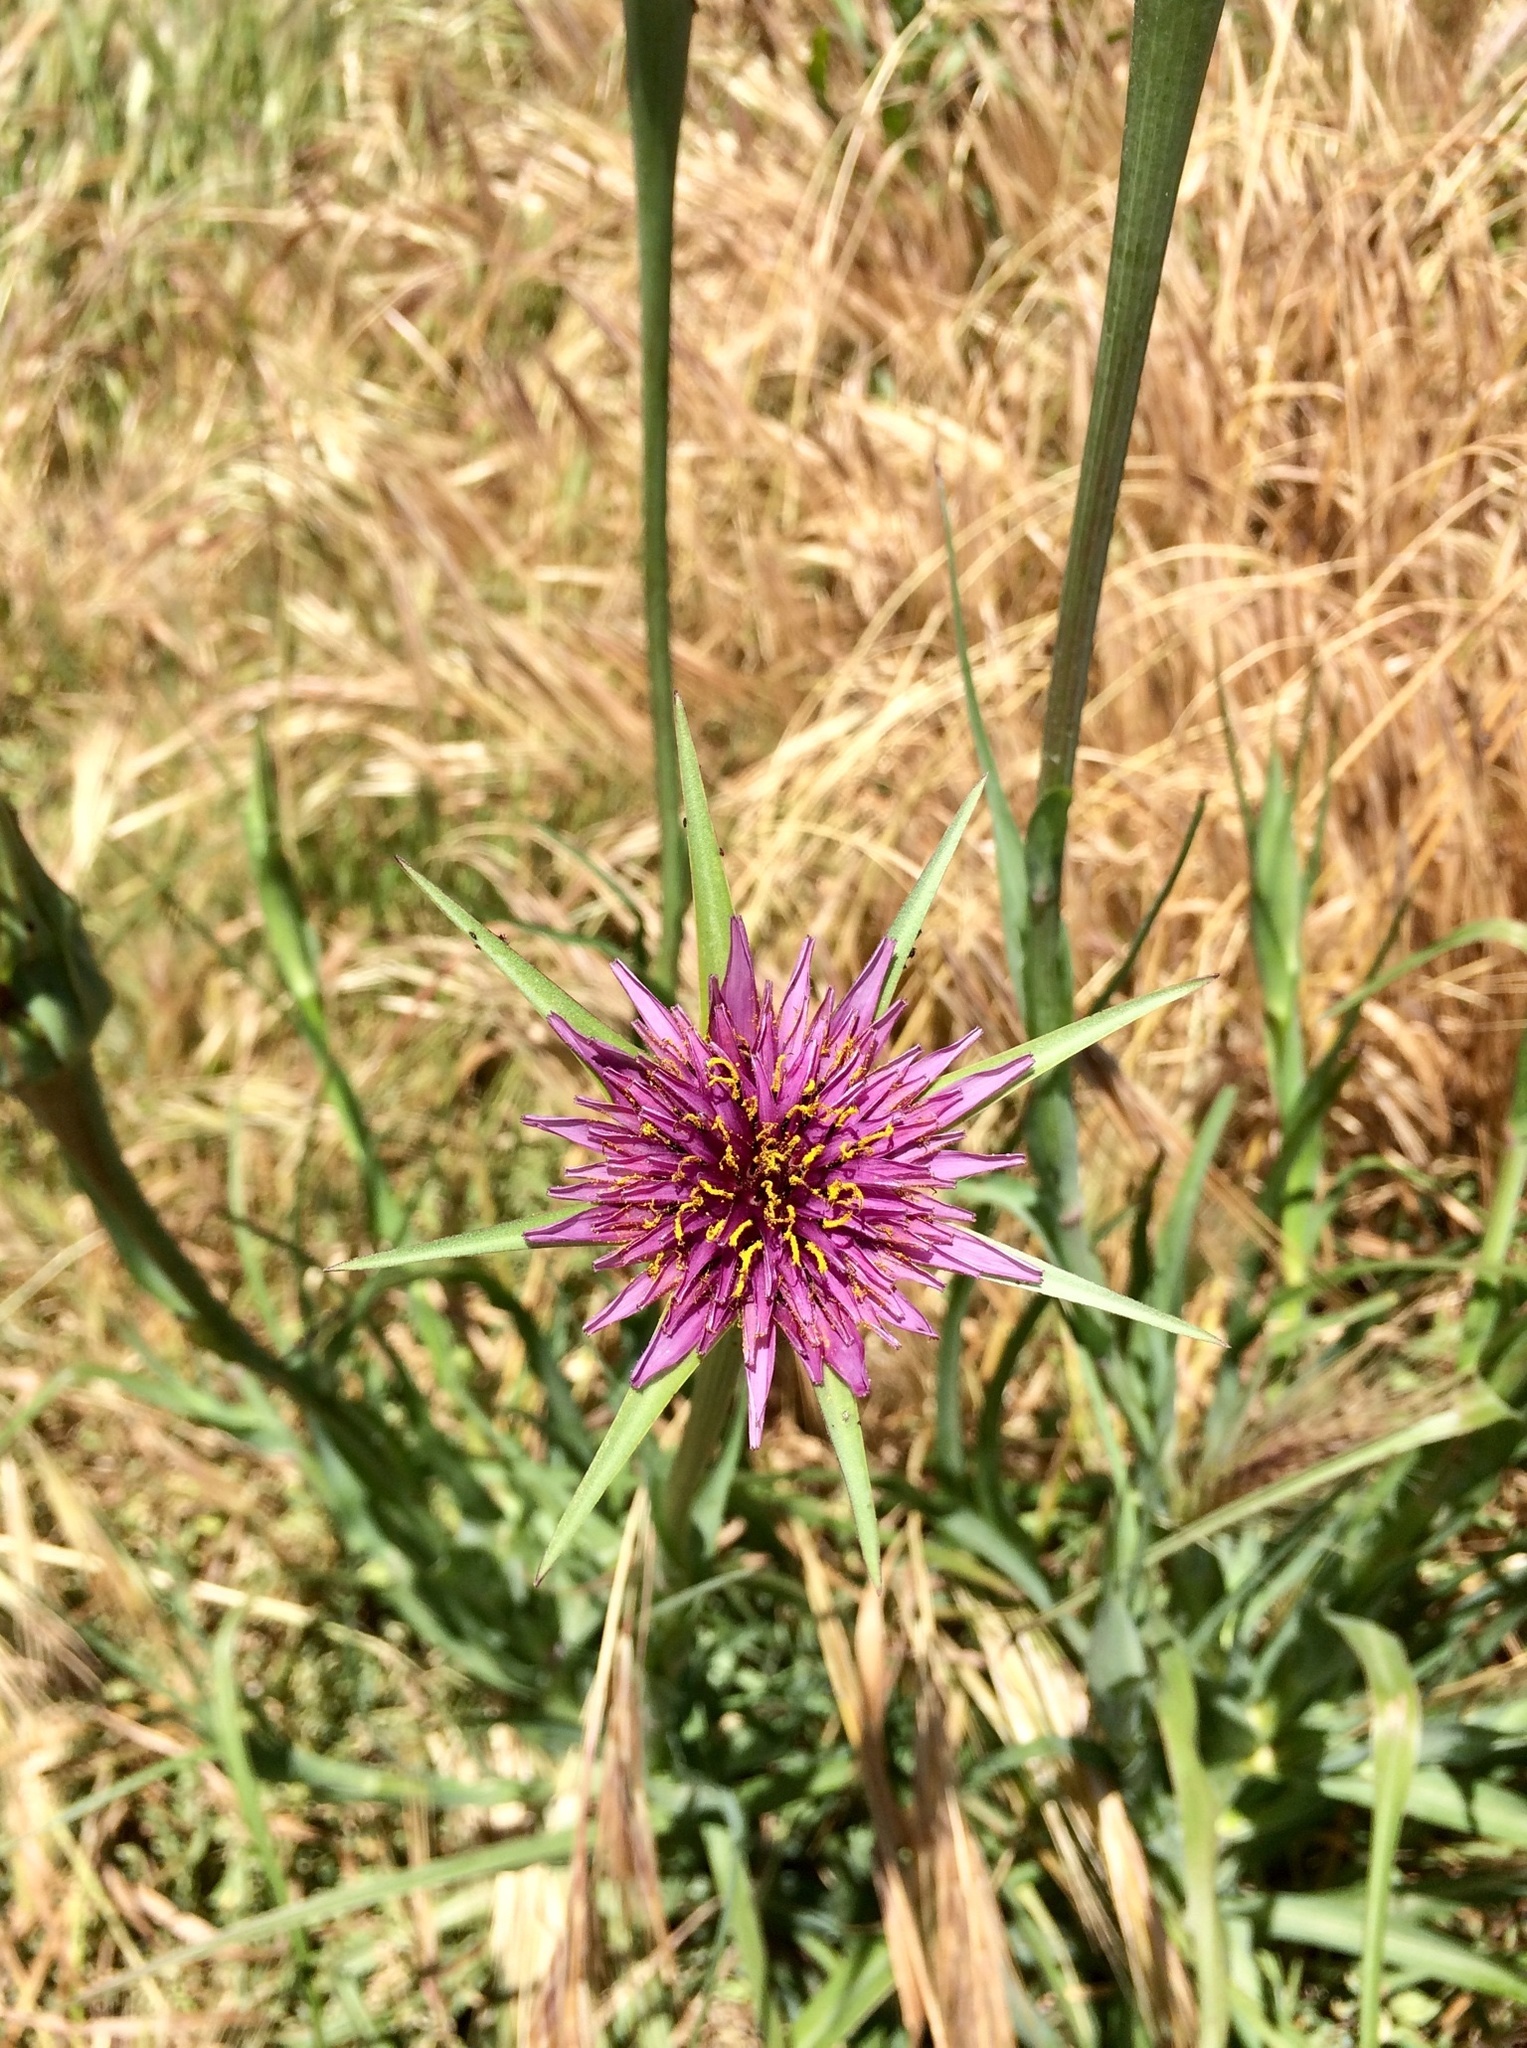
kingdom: Plantae
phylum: Tracheophyta
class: Magnoliopsida
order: Asterales
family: Asteraceae
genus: Tragopogon
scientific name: Tragopogon porrifolius
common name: Salsify
